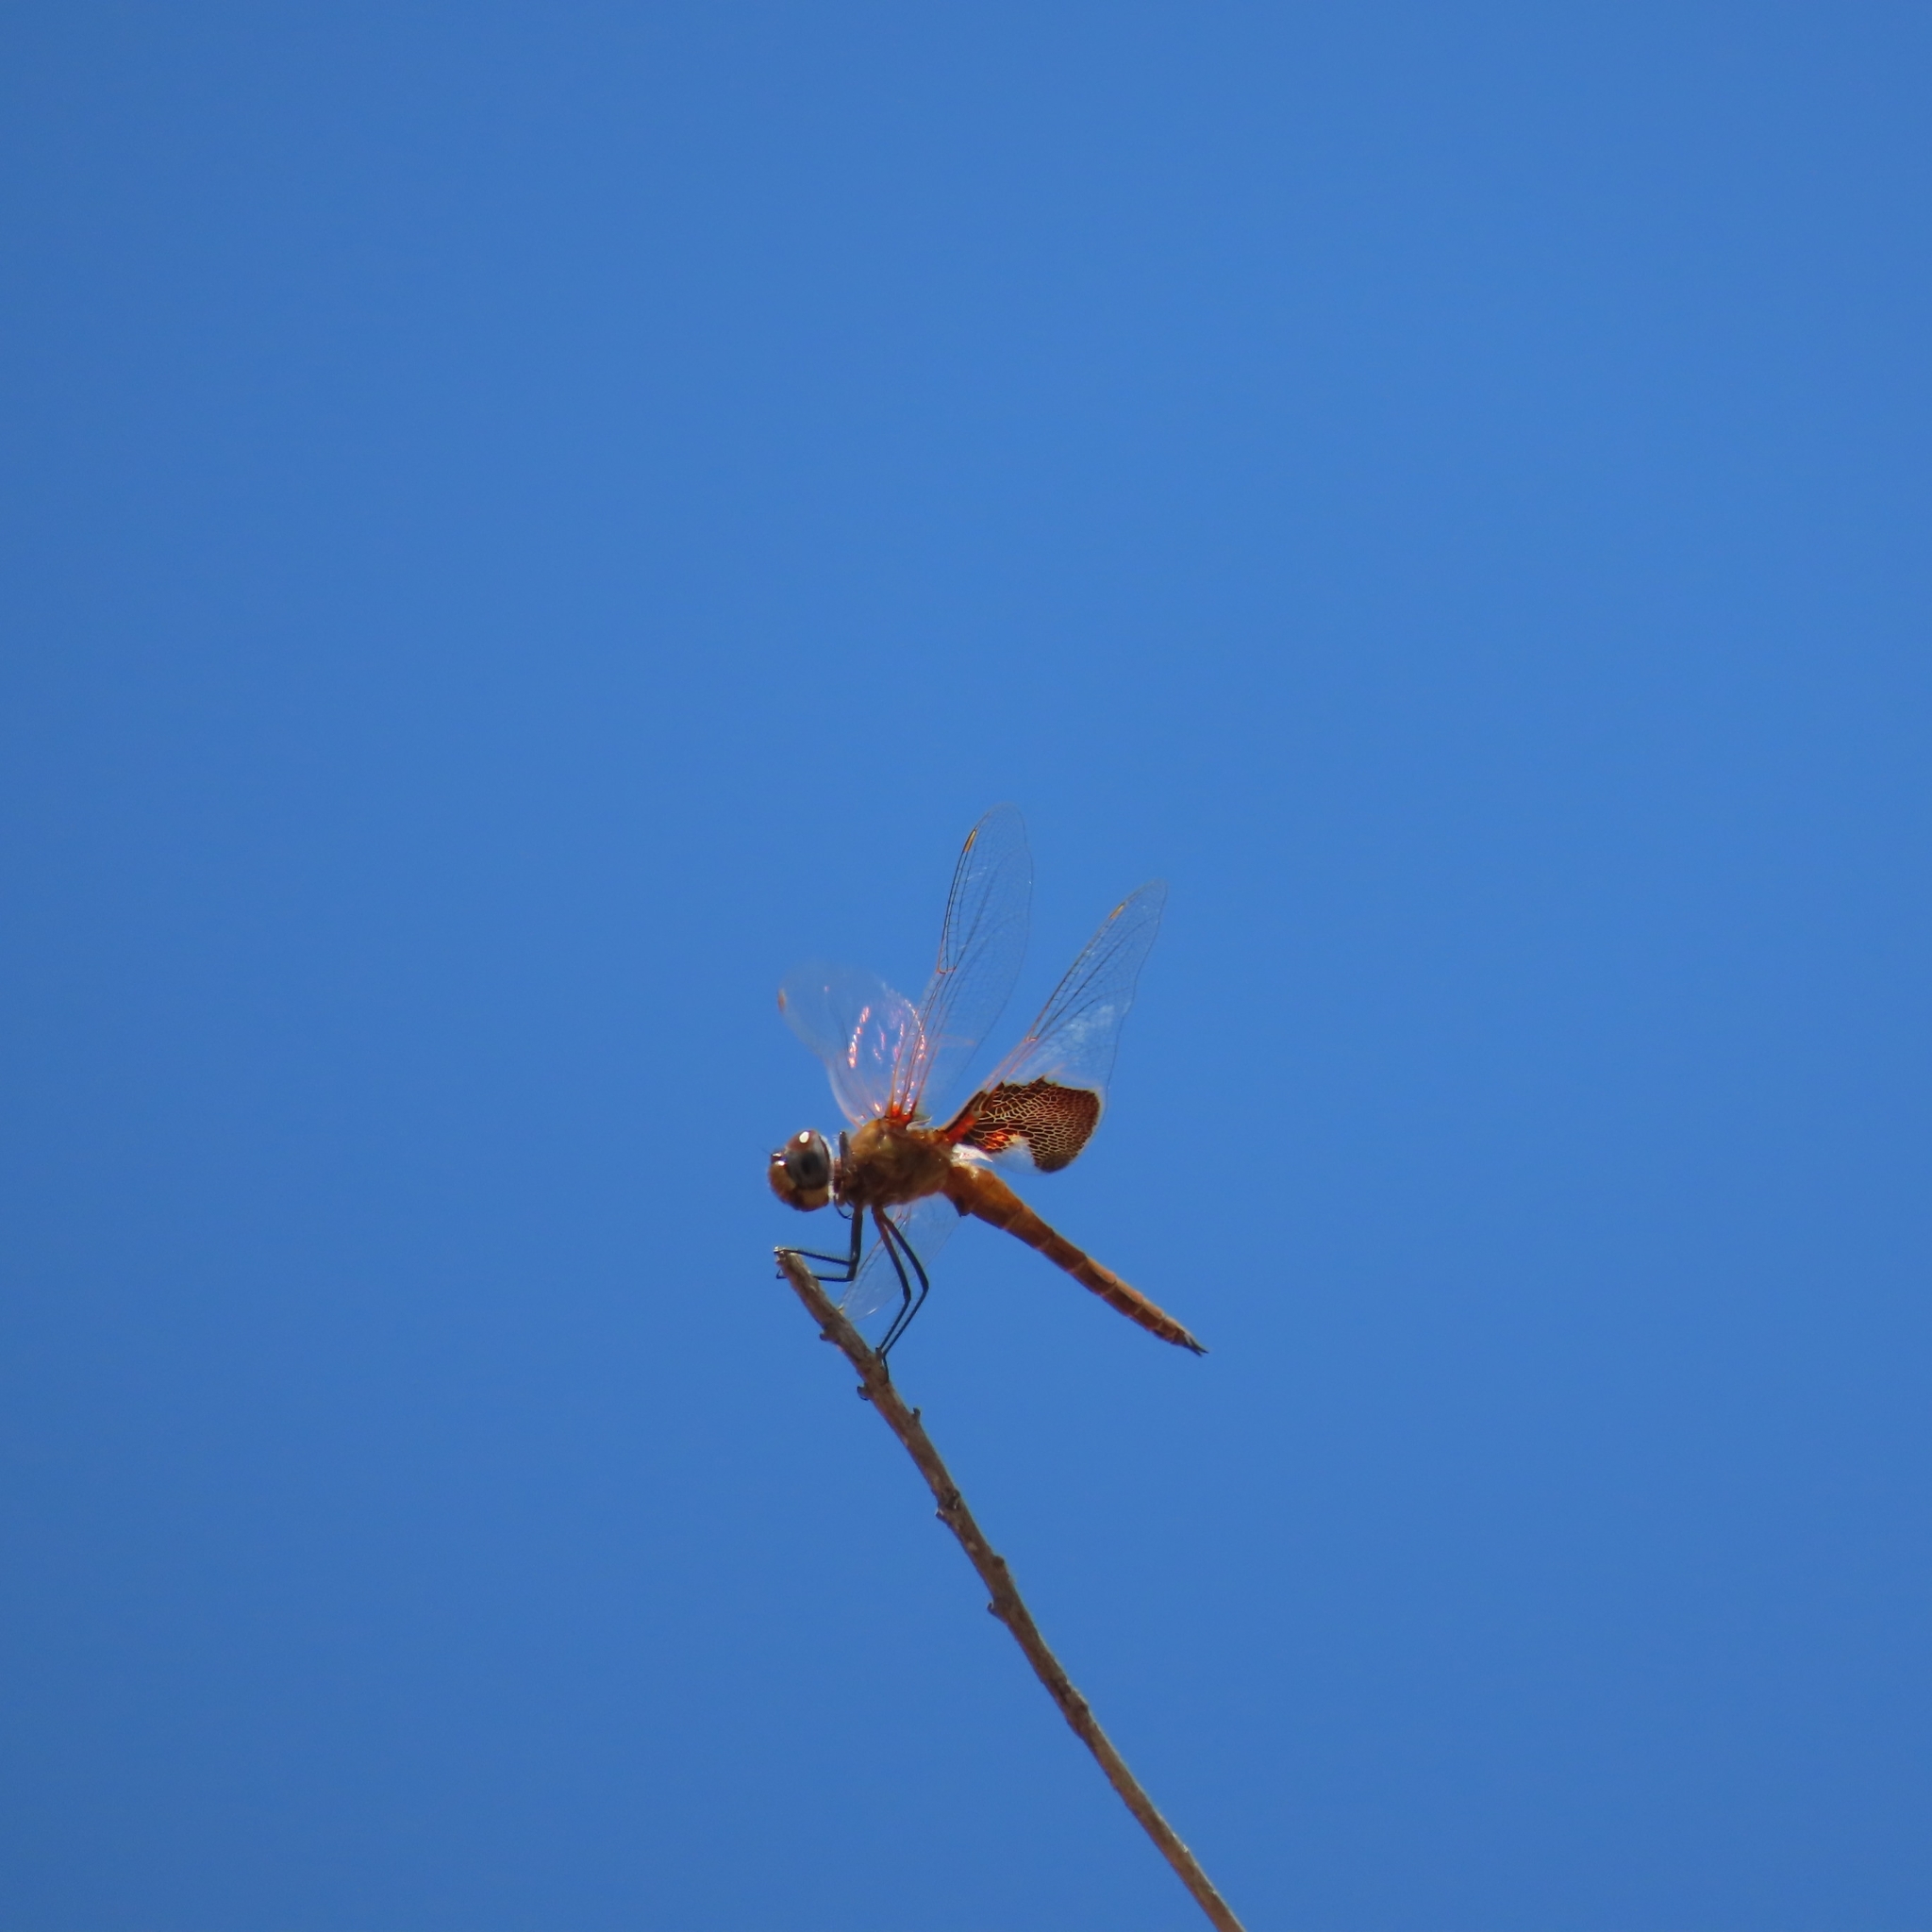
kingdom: Animalia
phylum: Arthropoda
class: Insecta
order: Odonata
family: Libellulidae
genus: Tramea
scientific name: Tramea onusta
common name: Red saddlebags
